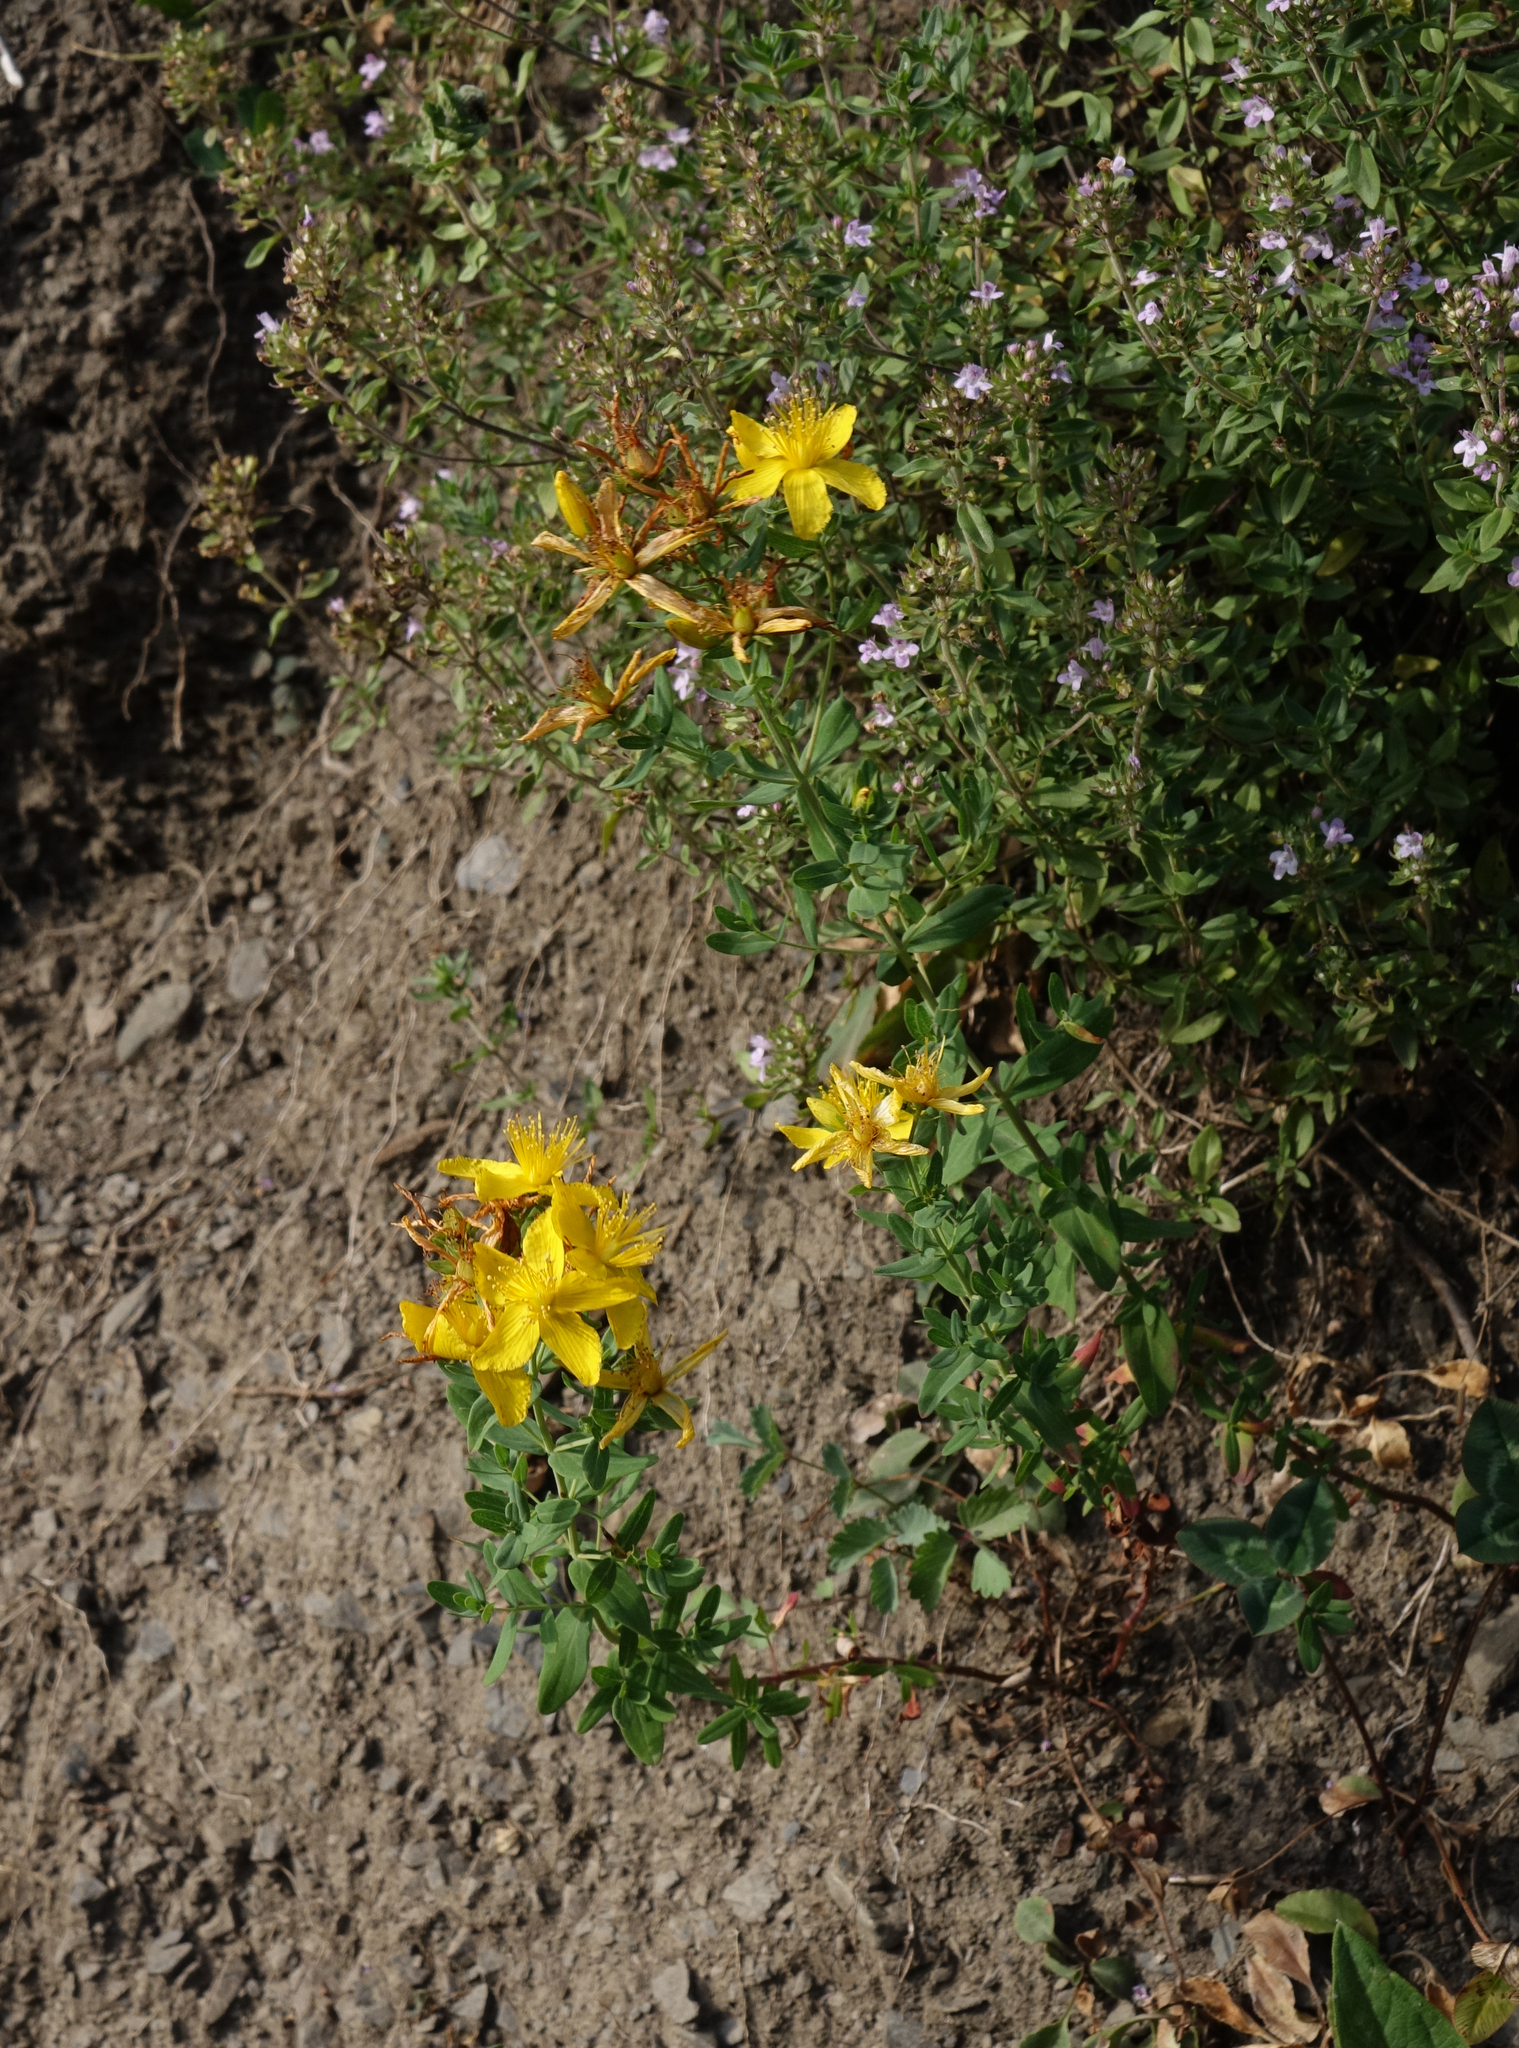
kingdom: Plantae
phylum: Tracheophyta
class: Magnoliopsida
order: Malpighiales
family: Hypericaceae
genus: Hypericum
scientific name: Hypericum perforatum
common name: Common st. johnswort
